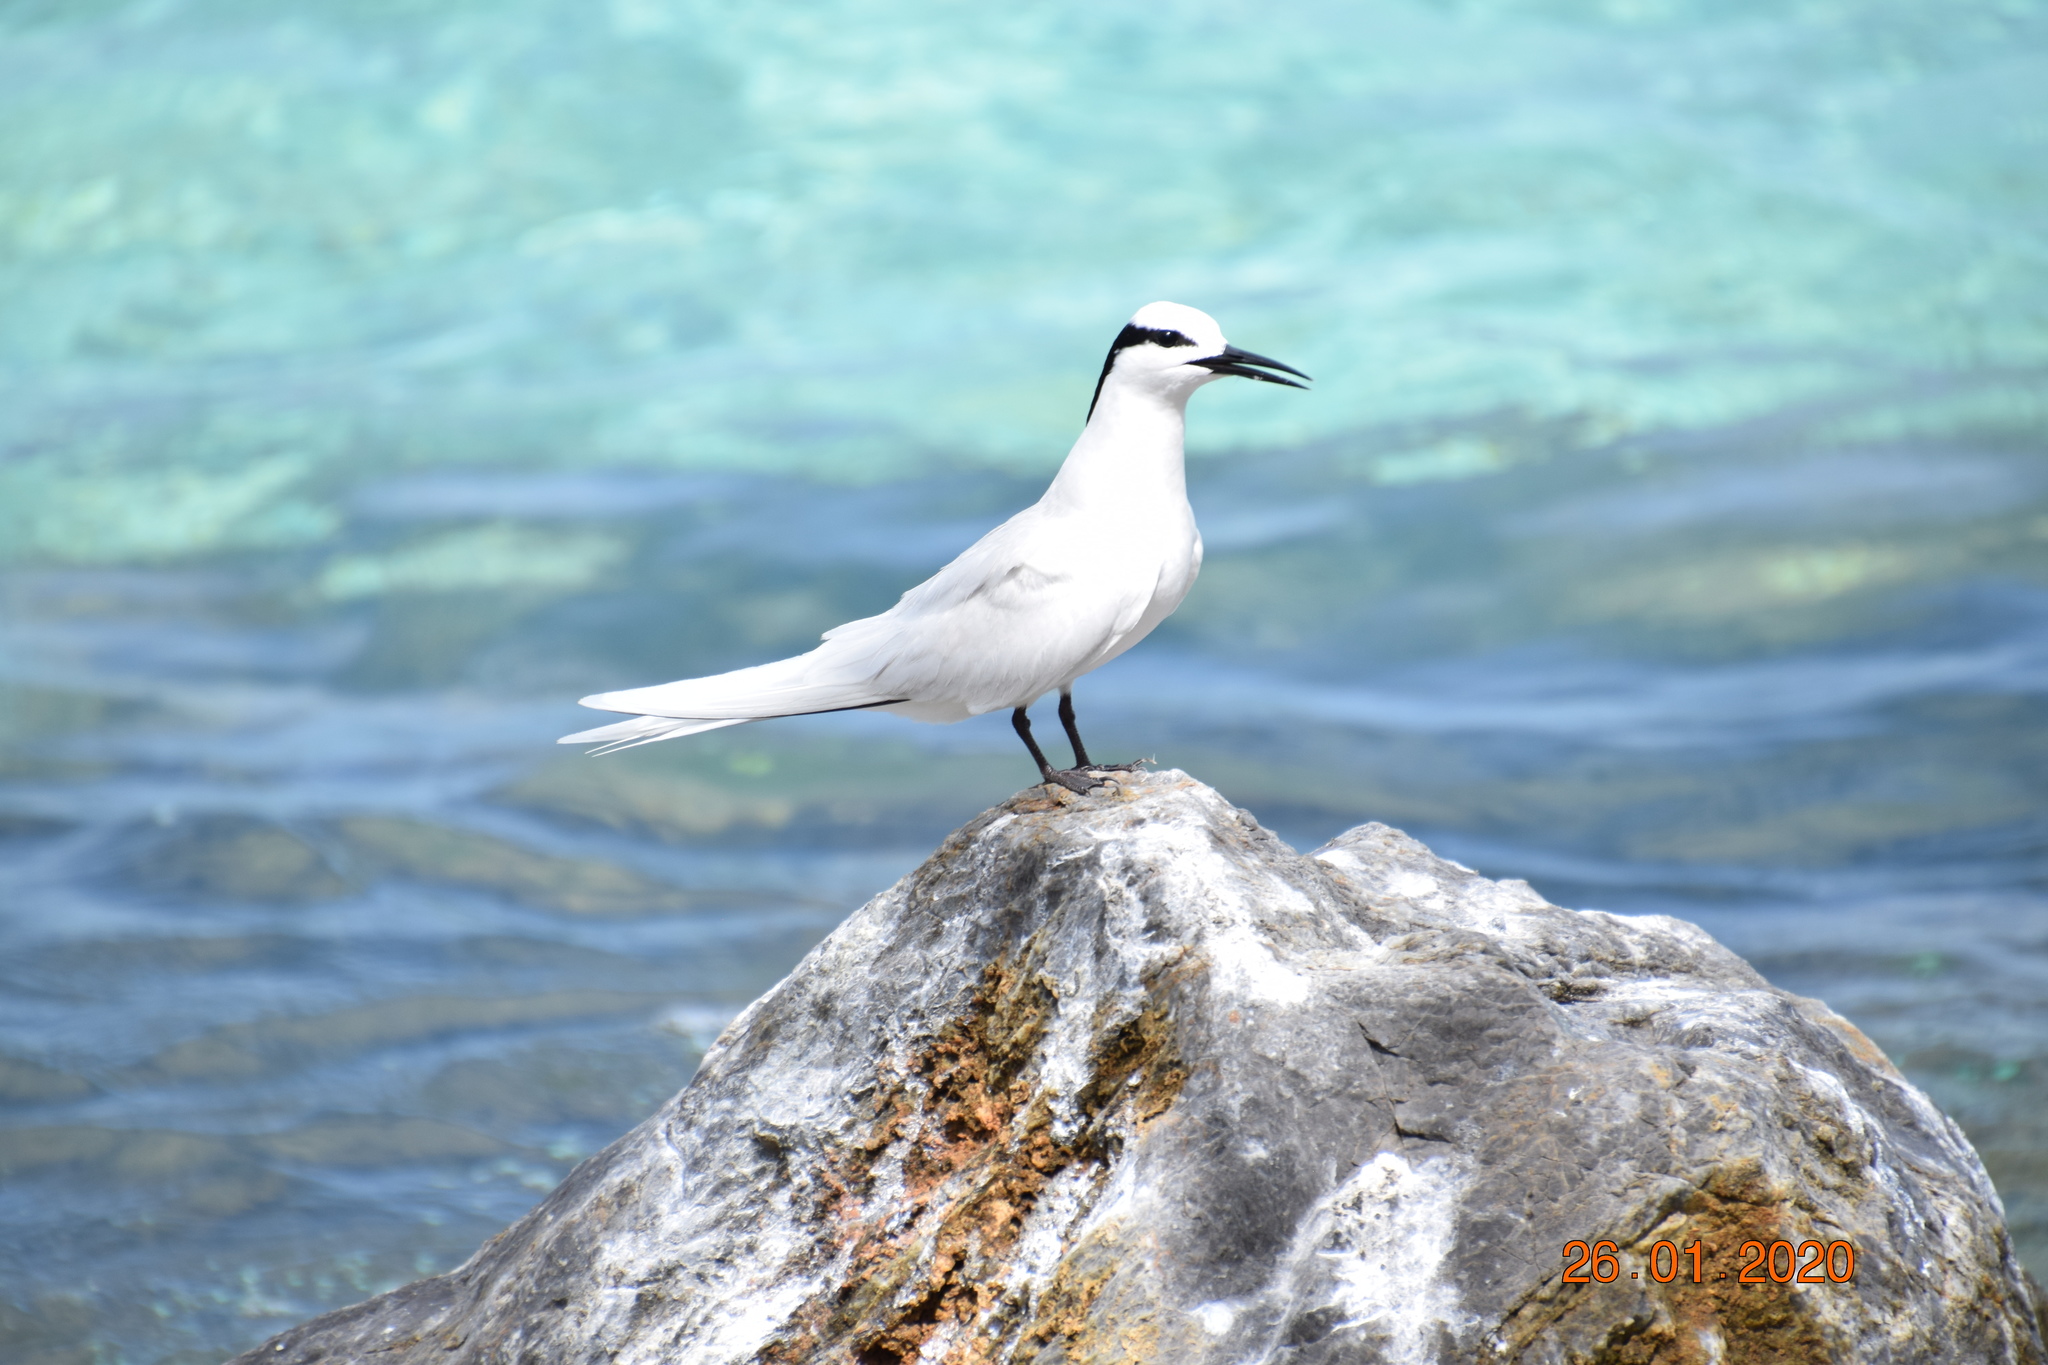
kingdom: Animalia
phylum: Chordata
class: Aves
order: Charadriiformes
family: Laridae
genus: Sterna
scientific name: Sterna sumatrana
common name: Black-naped tern
